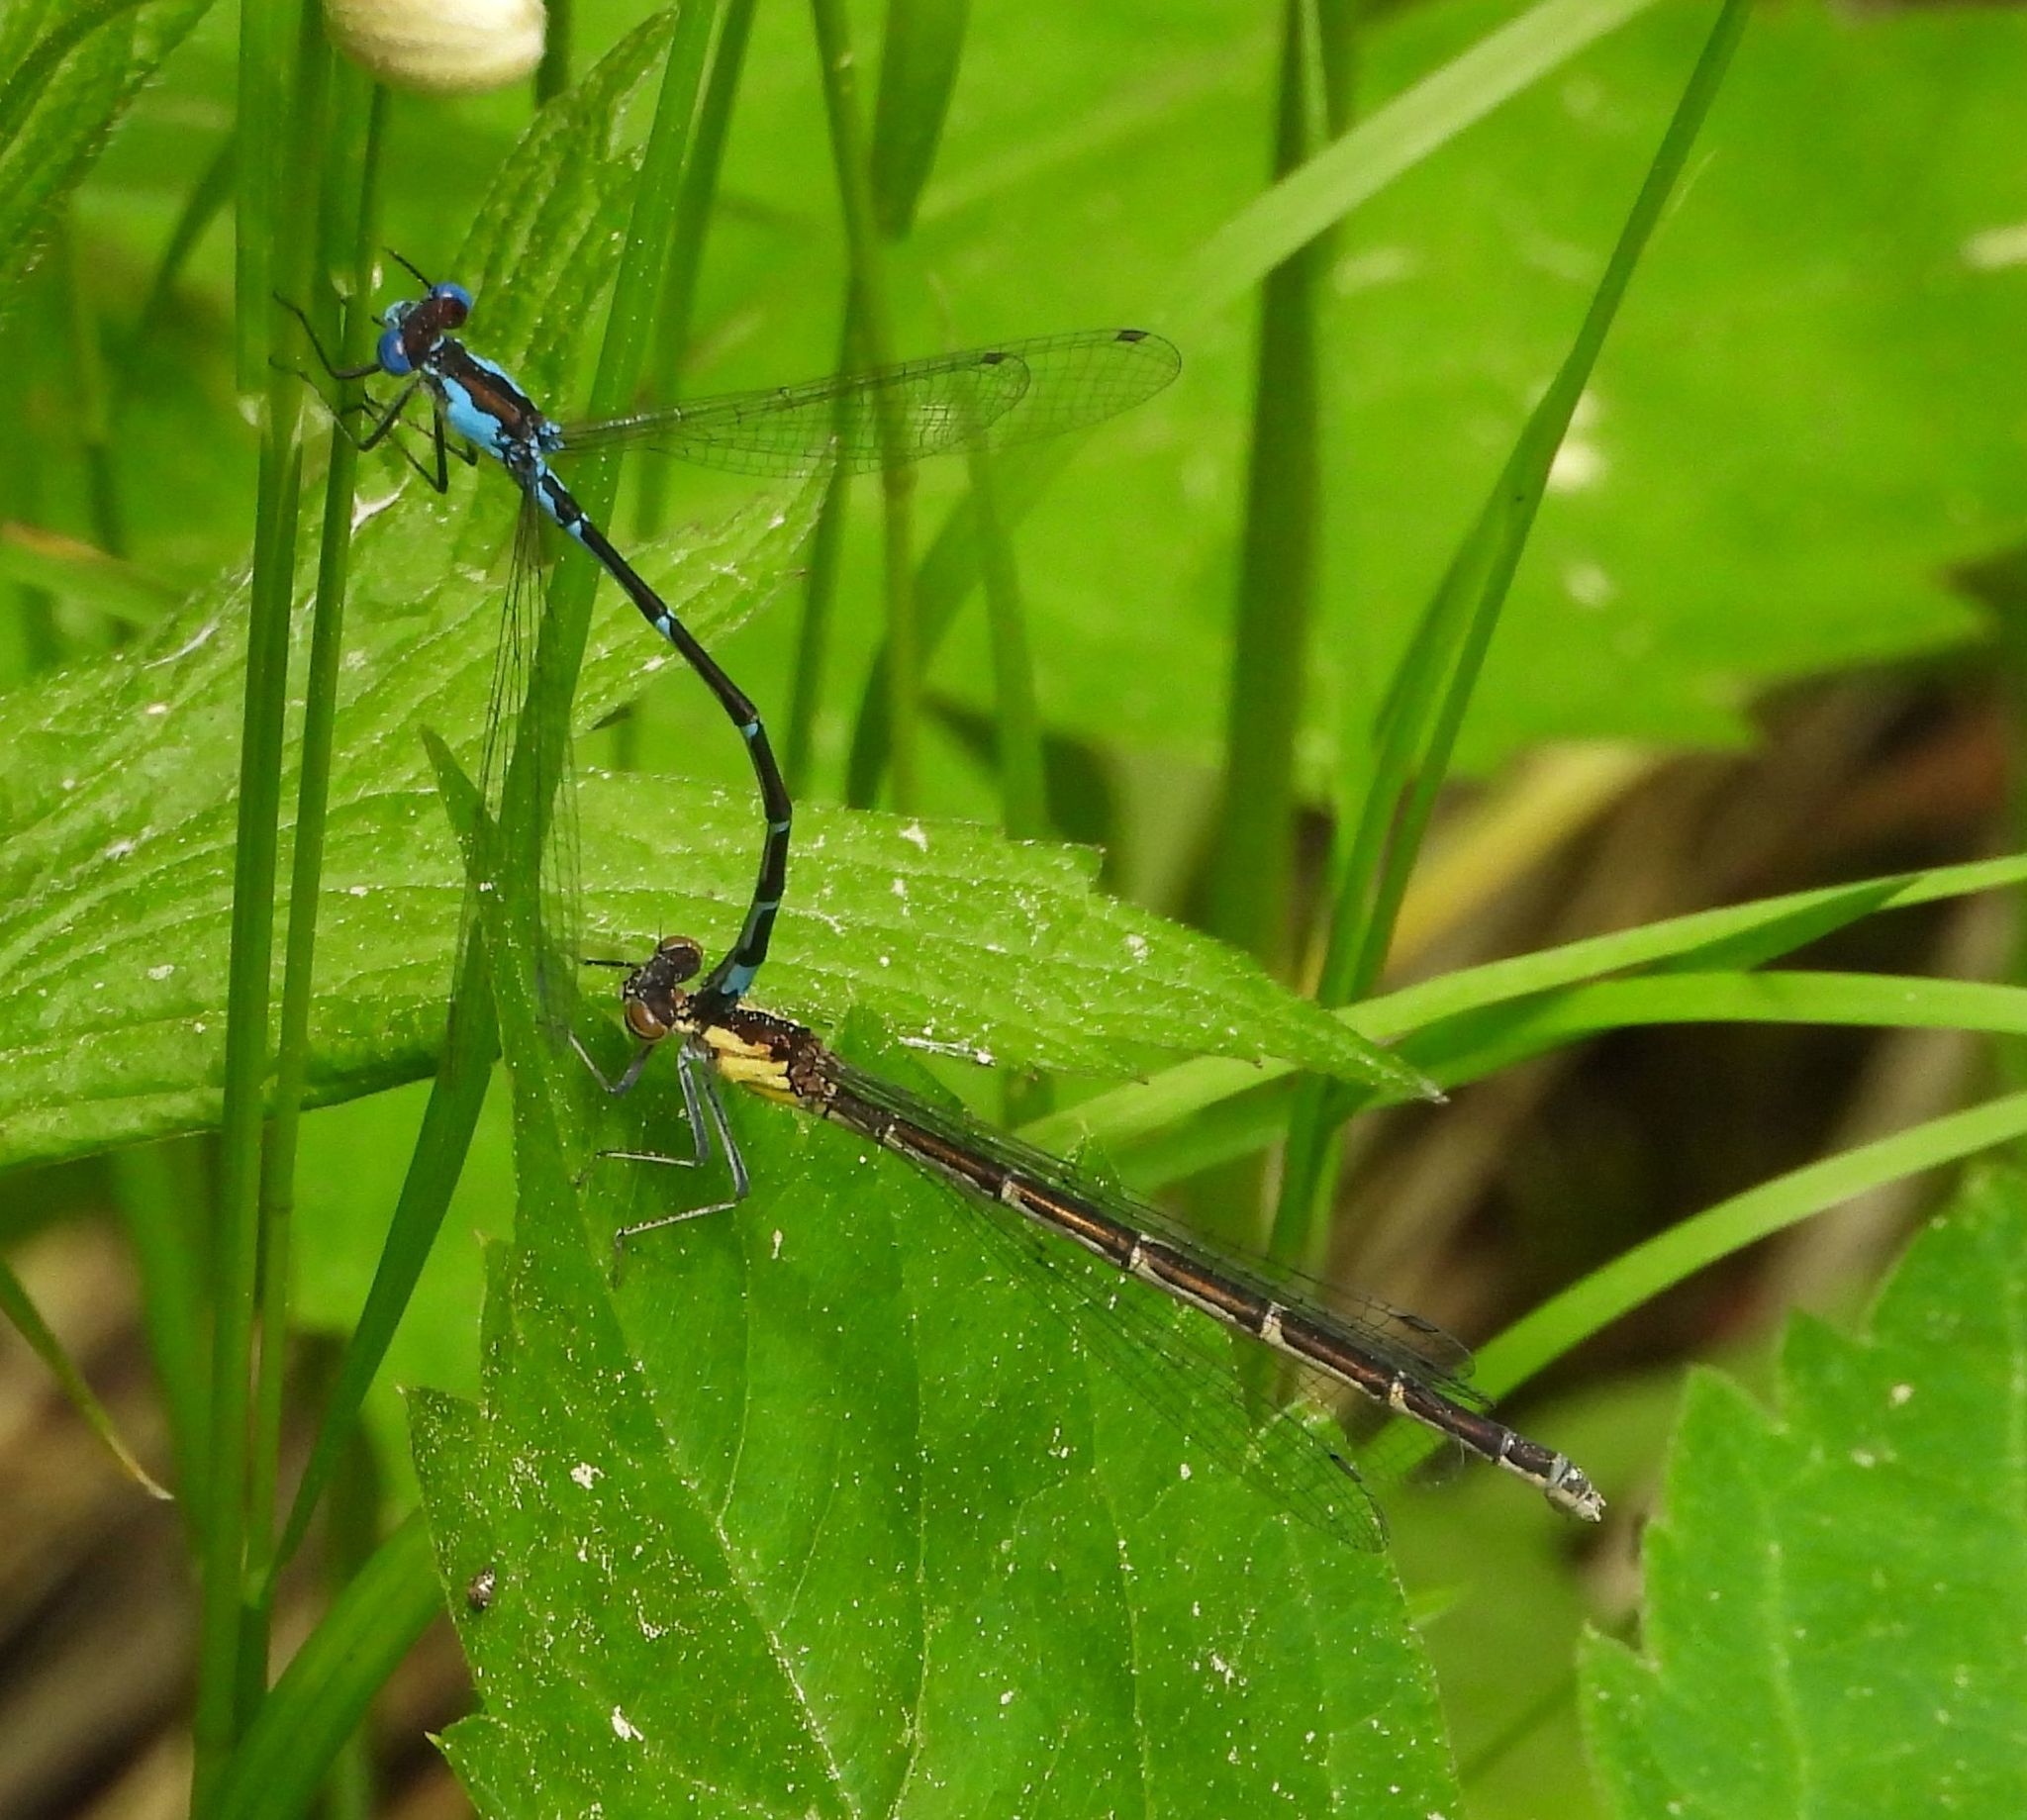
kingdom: Animalia
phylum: Arthropoda
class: Insecta
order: Odonata
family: Coenagrionidae
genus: Chromagrion
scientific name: Chromagrion conditum
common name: Aurora damsel
